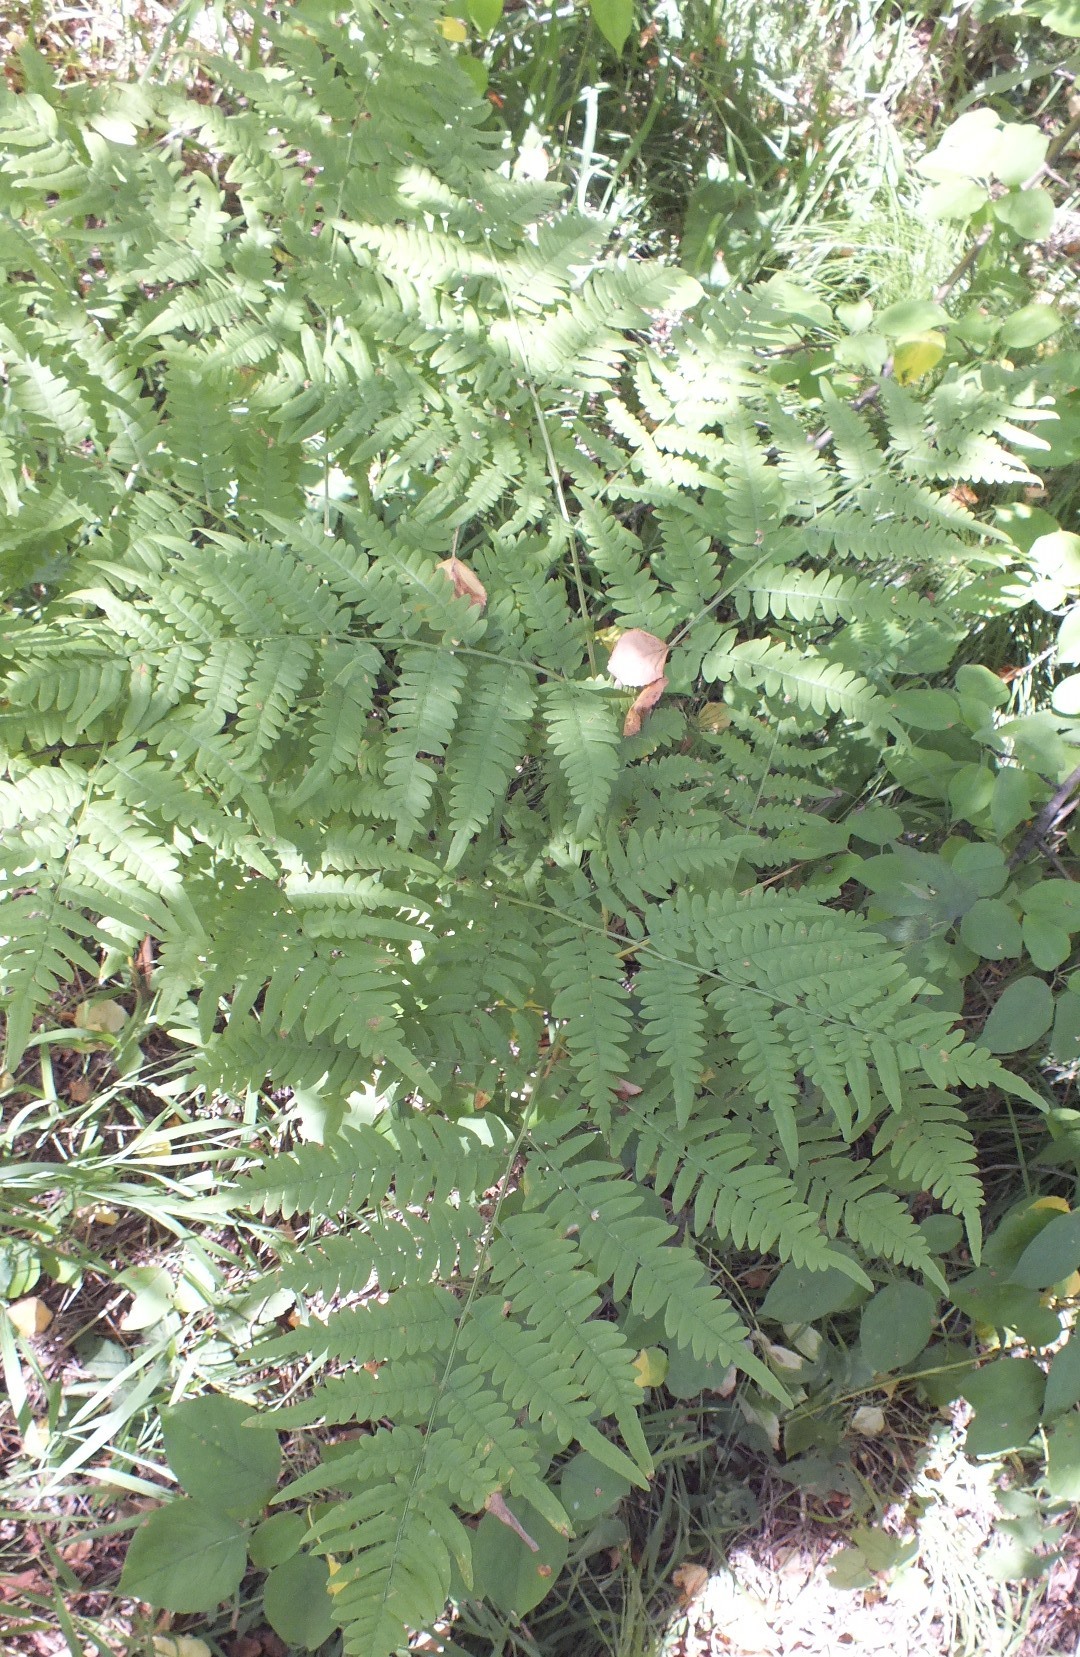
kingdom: Plantae
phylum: Tracheophyta
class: Polypodiopsida
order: Polypodiales
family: Dennstaedtiaceae
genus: Pteridium
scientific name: Pteridium aquilinum
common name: Bracken
